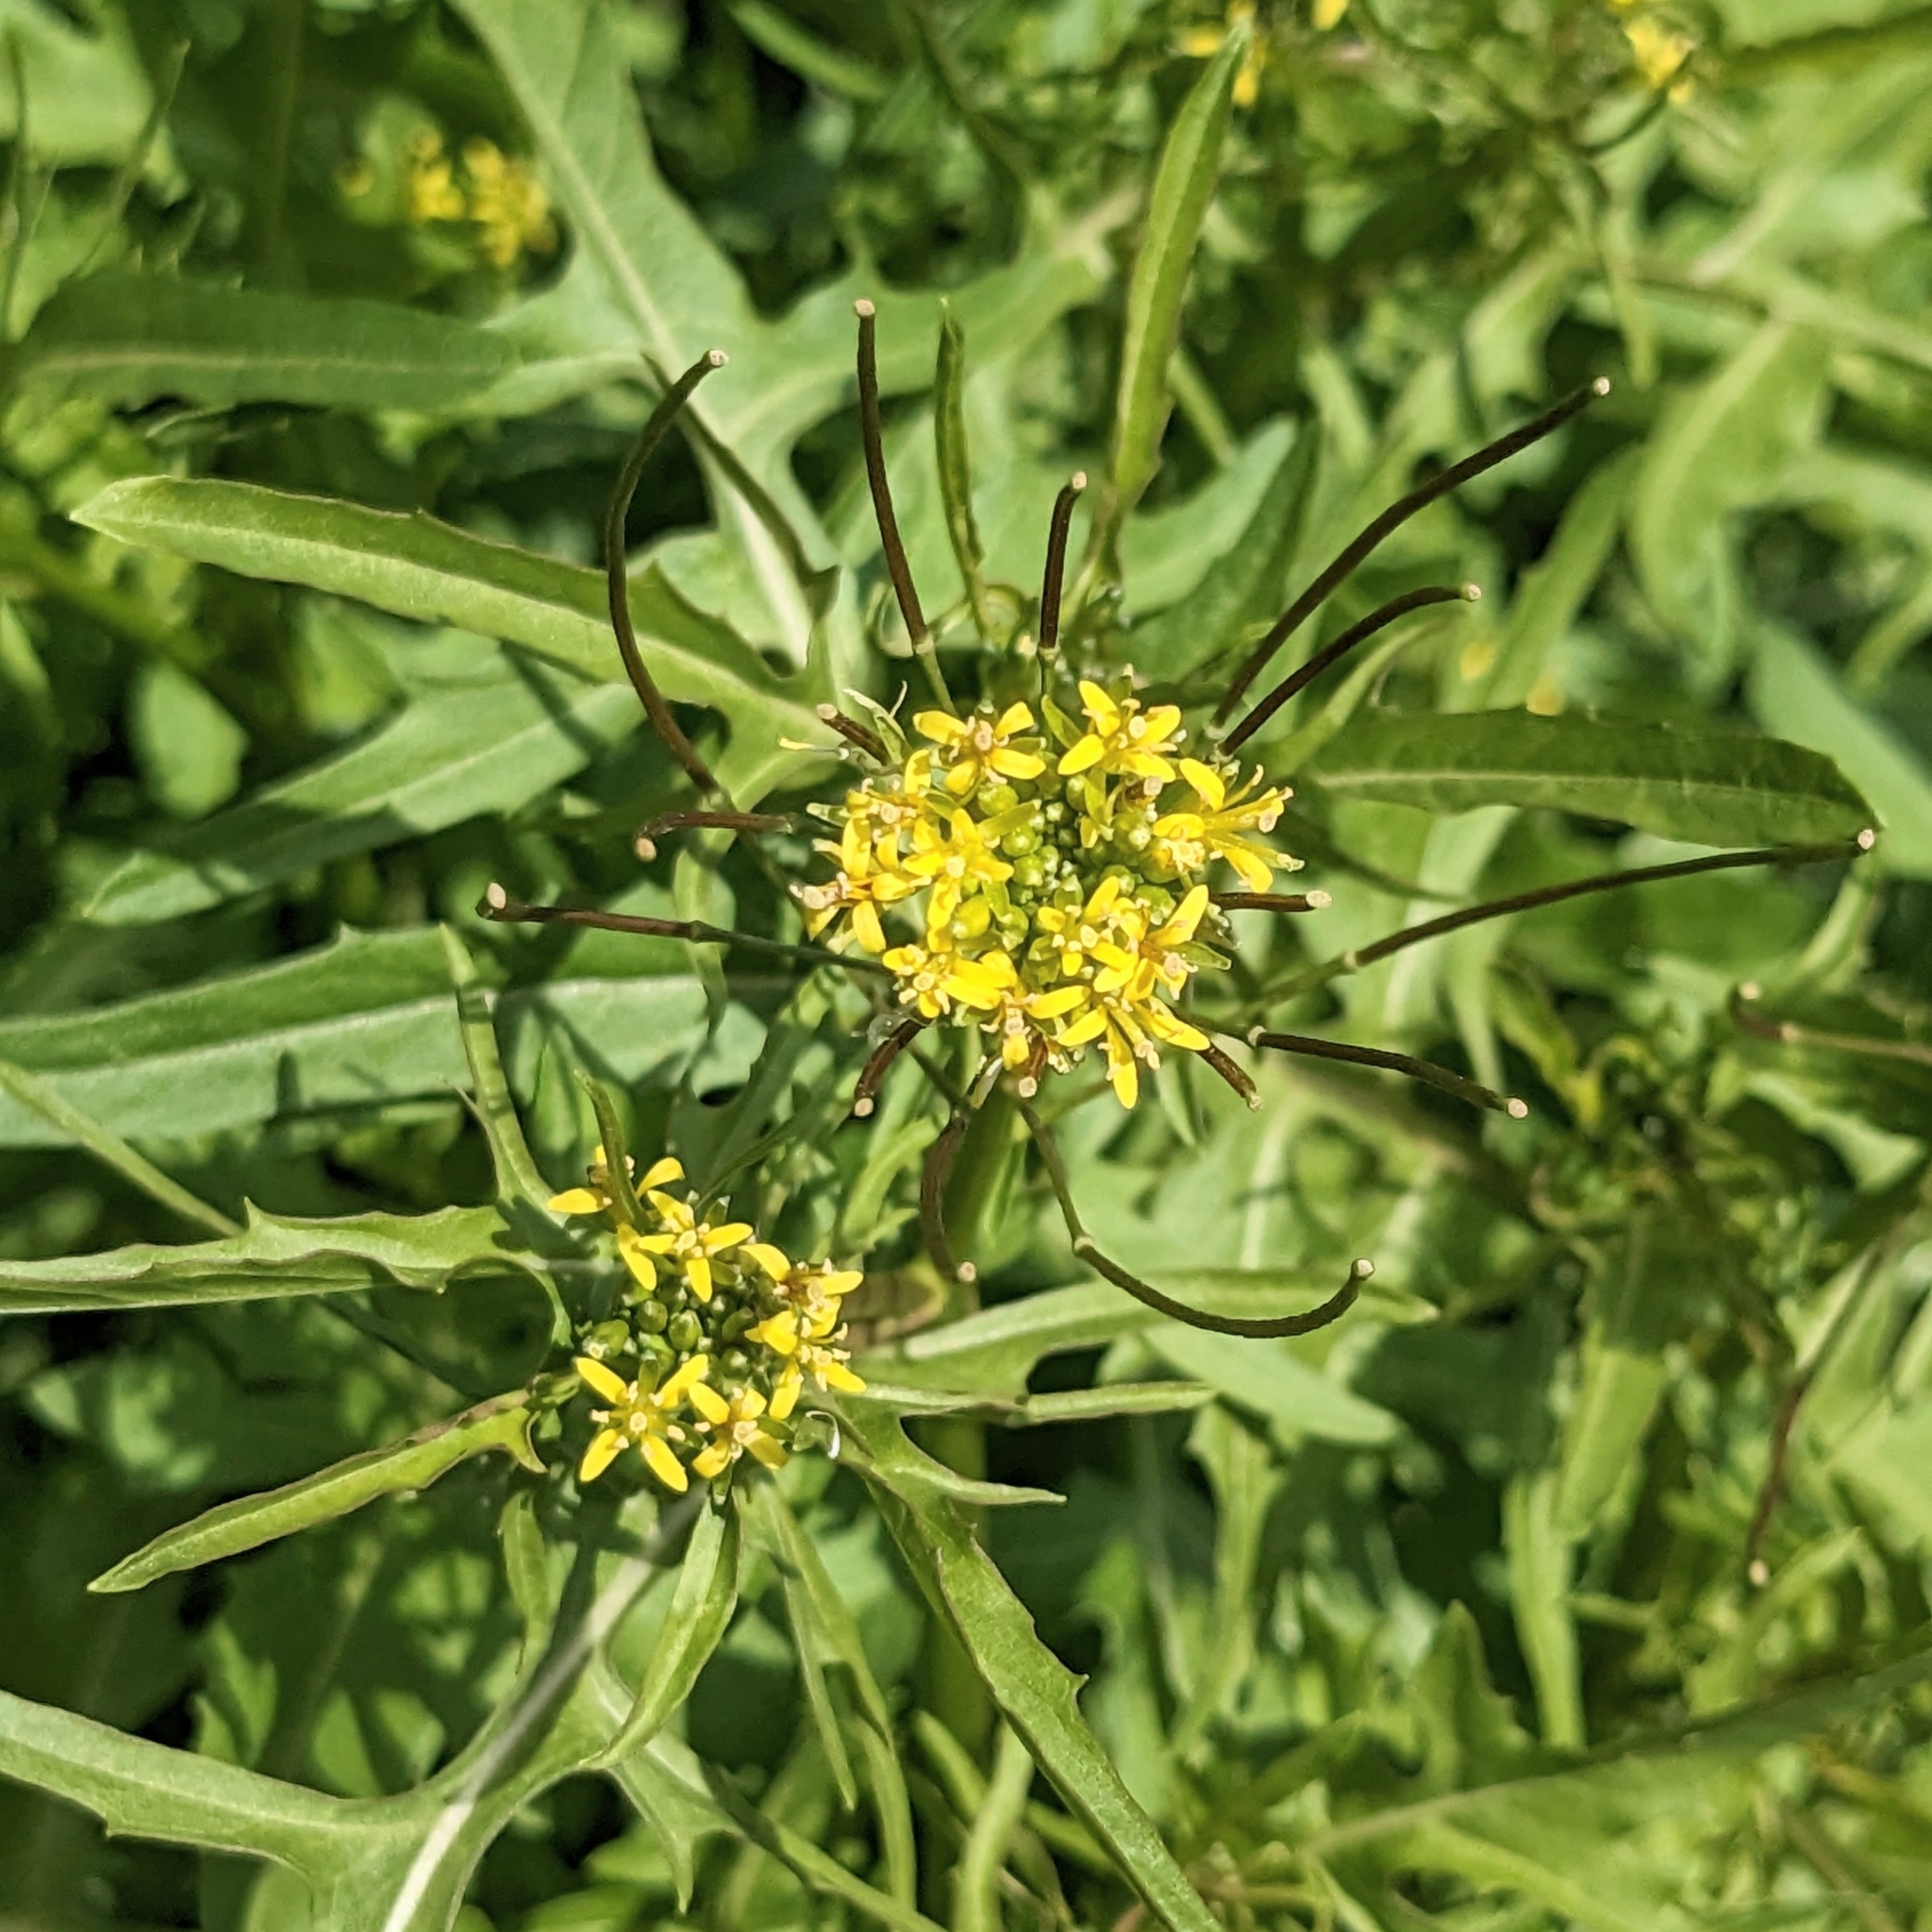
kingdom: Plantae
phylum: Tracheophyta
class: Magnoliopsida
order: Brassicales
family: Brassicaceae
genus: Sisymbrium
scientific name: Sisymbrium irio
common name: London rocket
